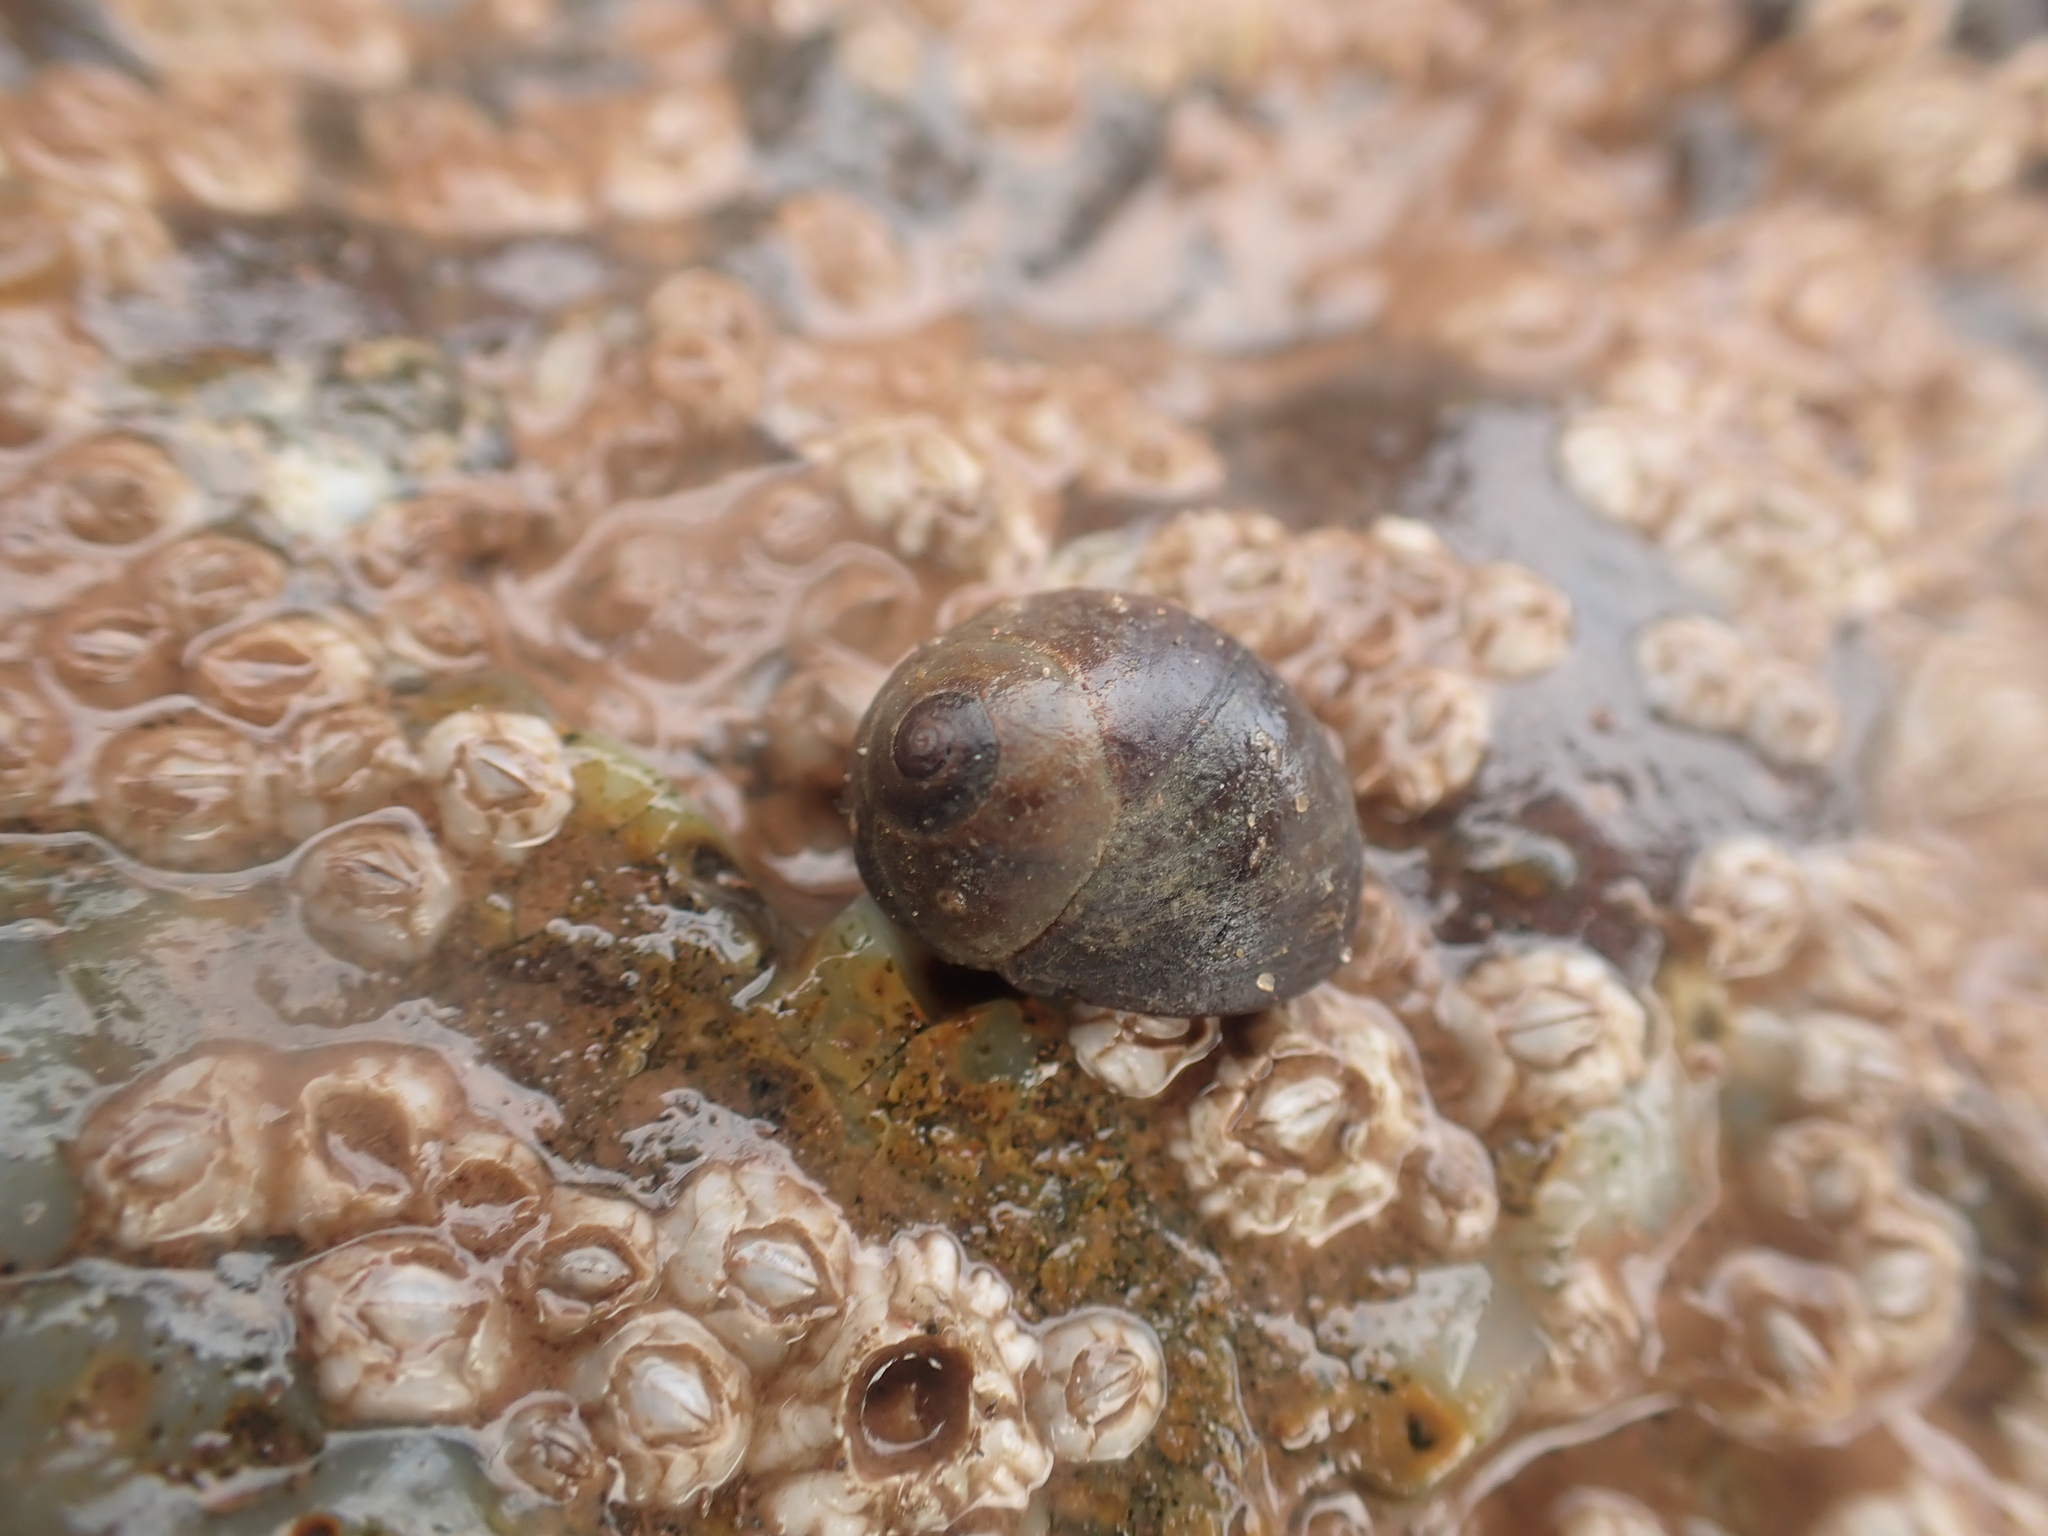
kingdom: Animalia
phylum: Mollusca
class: Gastropoda
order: Littorinimorpha
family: Littorinidae
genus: Littorina
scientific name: Littorina obtusata
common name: Flat periwinkle
